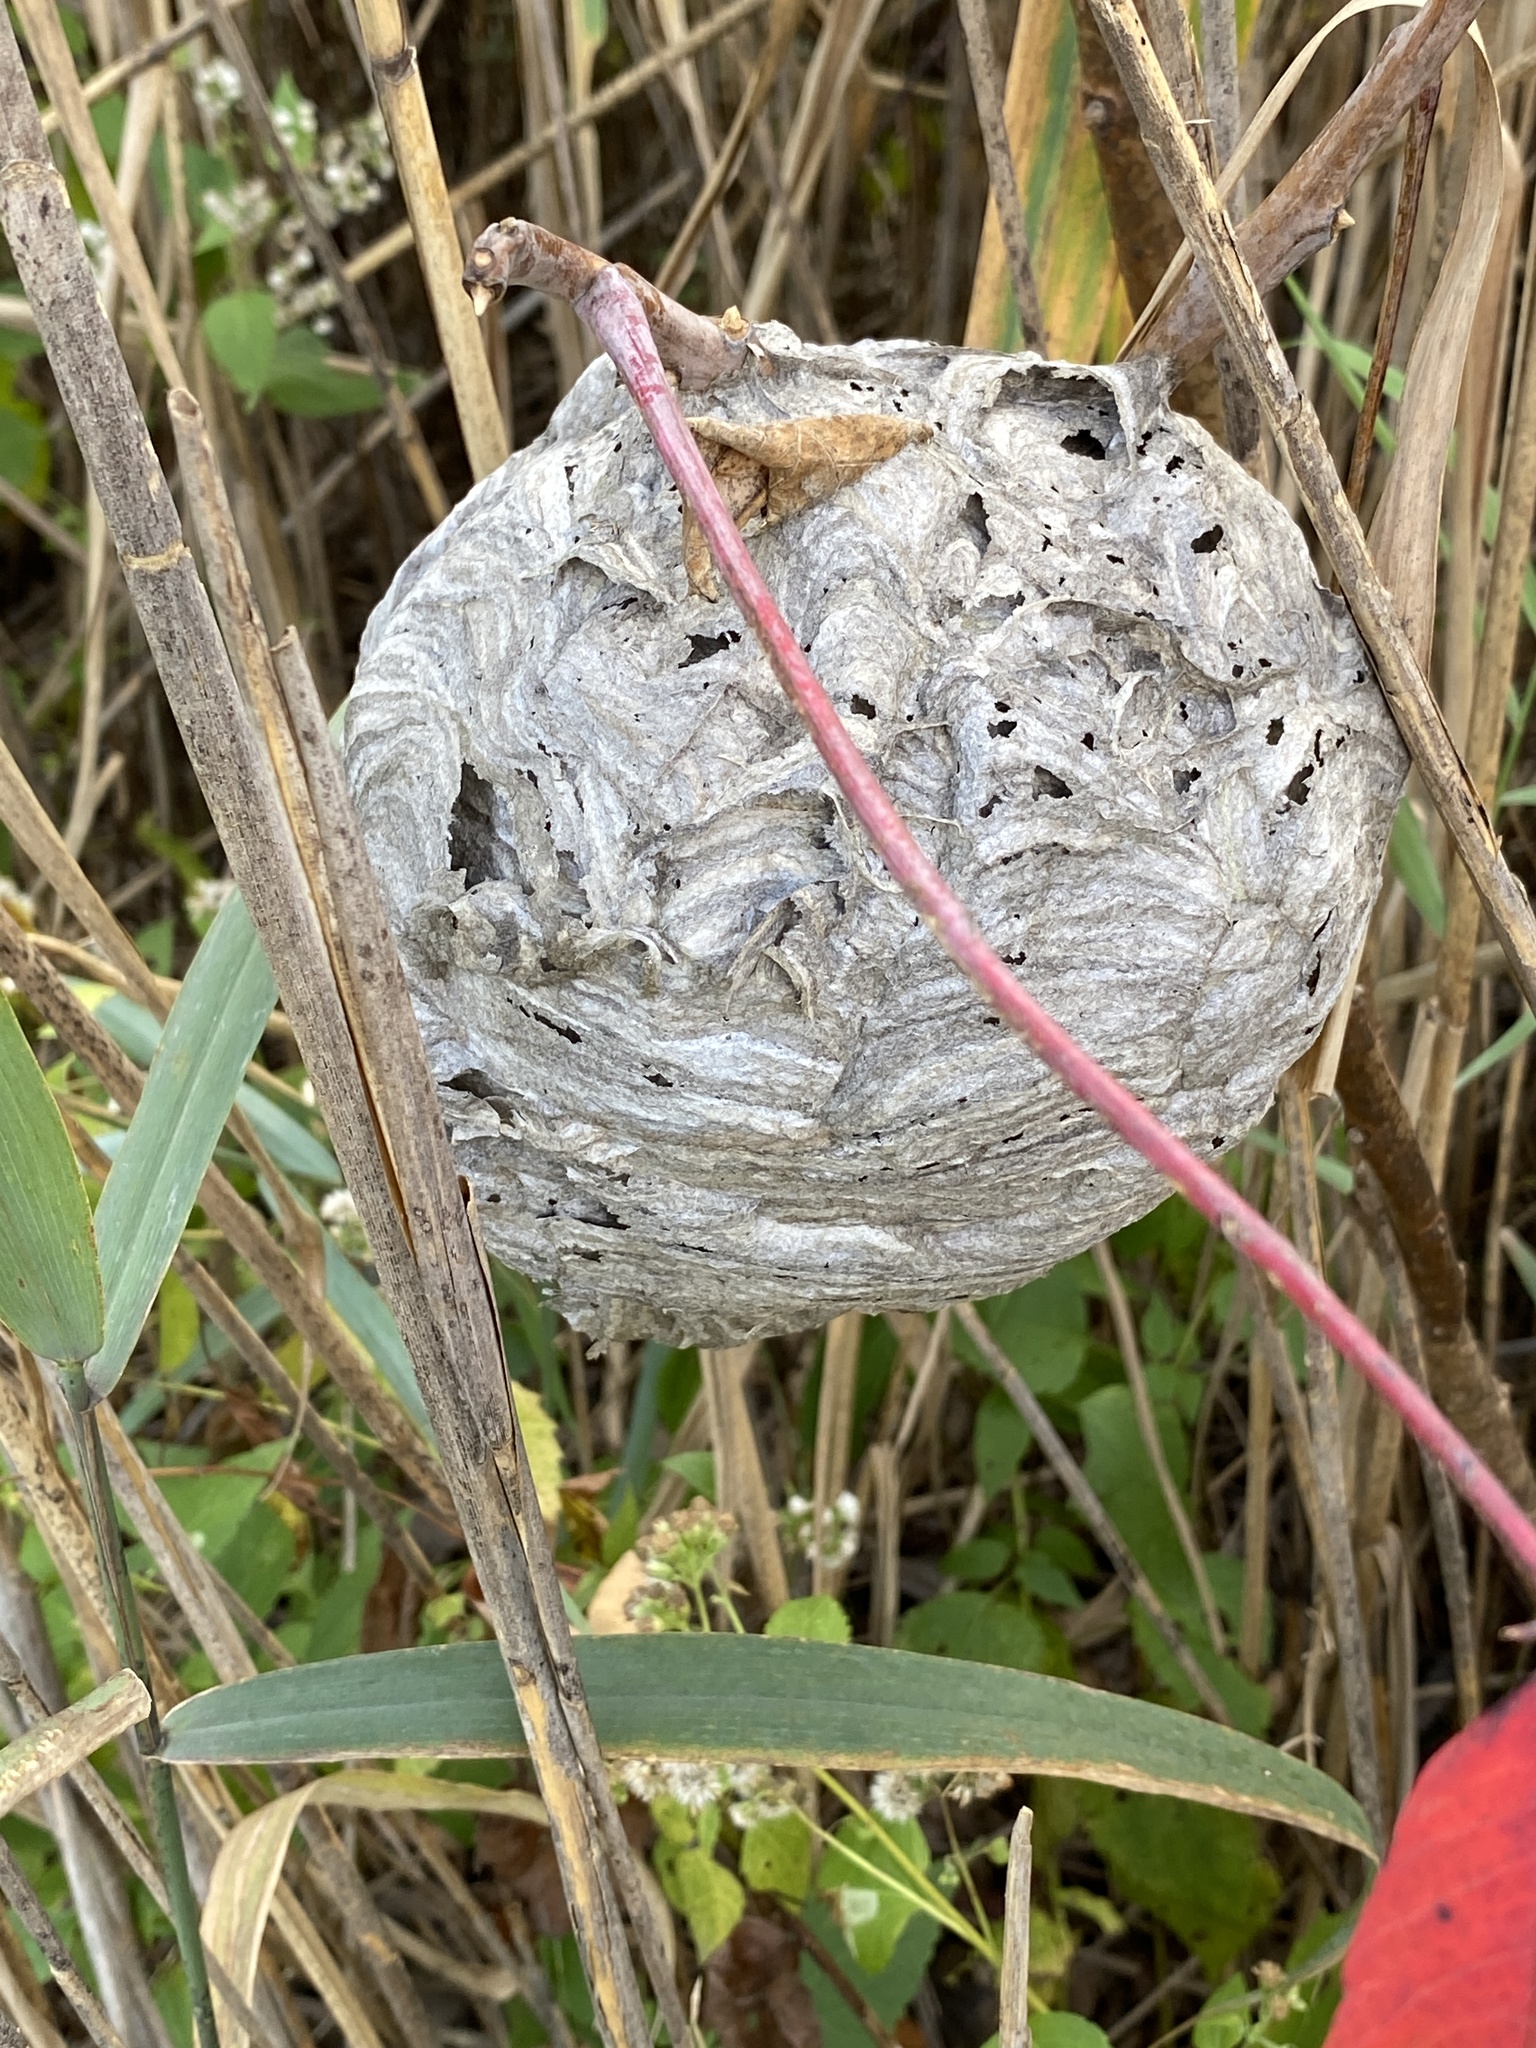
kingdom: Animalia
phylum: Arthropoda
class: Insecta
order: Hymenoptera
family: Vespidae
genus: Dolichovespula
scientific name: Dolichovespula maculata
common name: Bald-faced hornet
